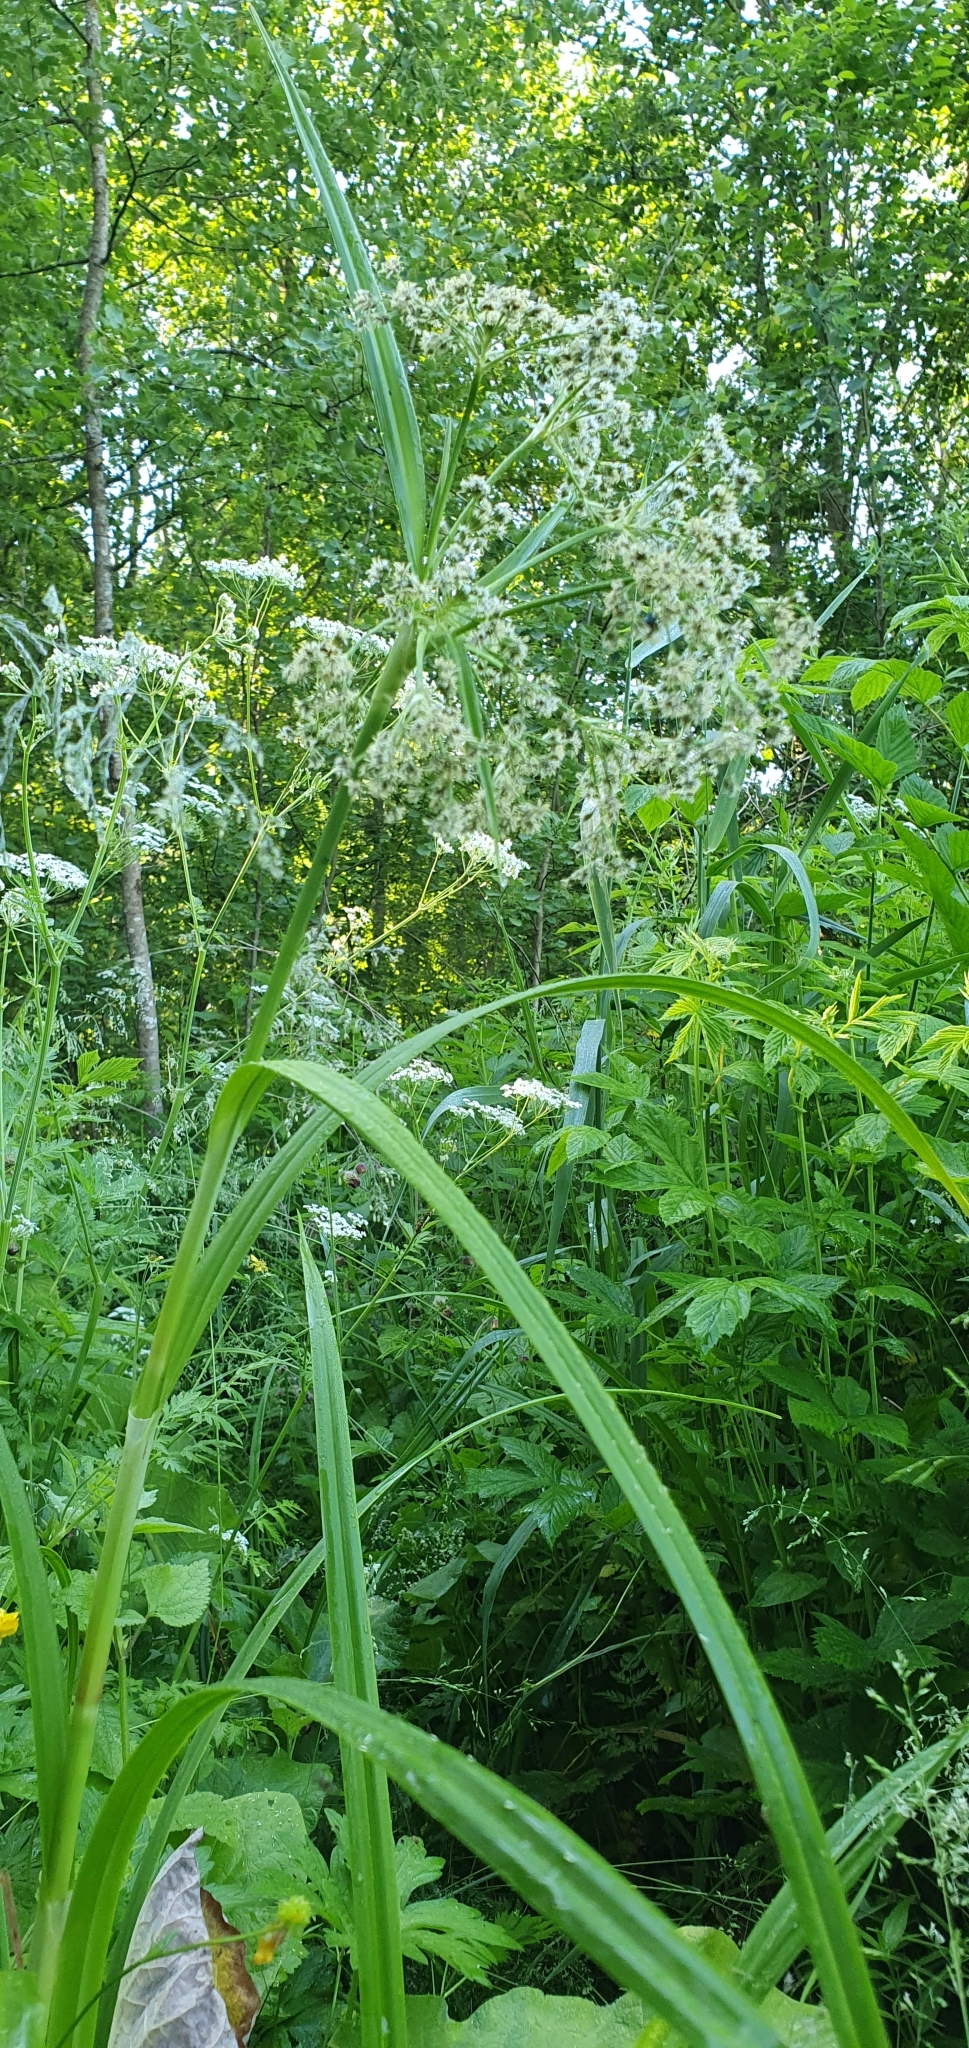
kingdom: Plantae
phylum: Tracheophyta
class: Liliopsida
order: Poales
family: Cyperaceae
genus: Scirpus
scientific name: Scirpus sylvaticus
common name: Wood club-rush
